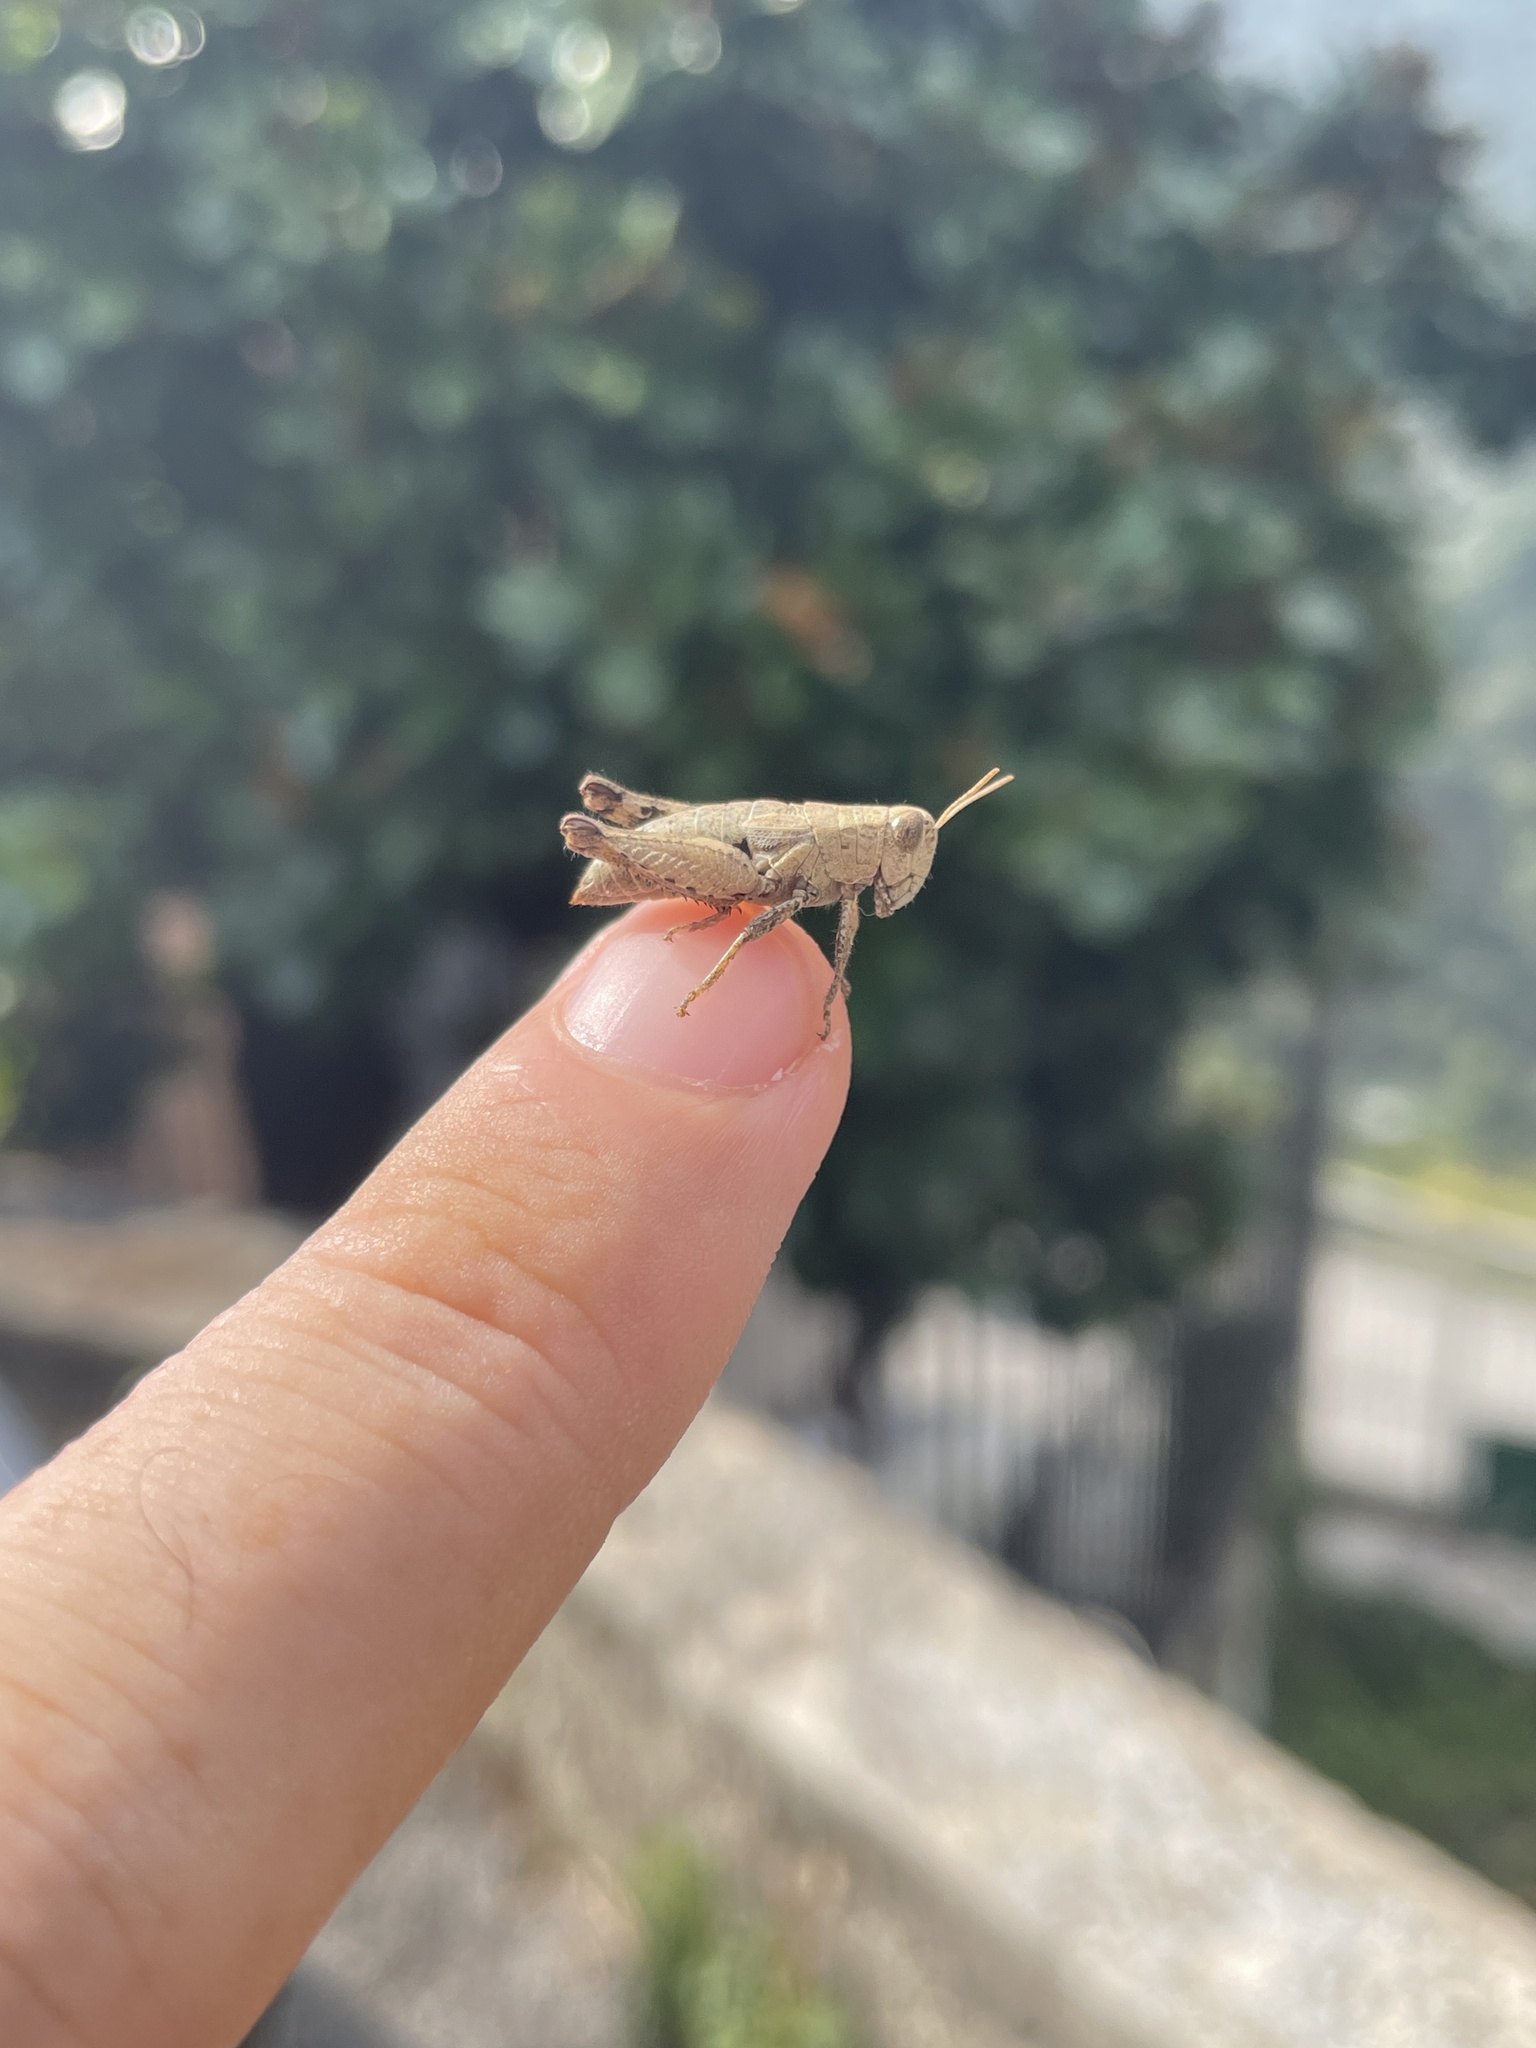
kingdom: Animalia
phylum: Arthropoda
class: Insecta
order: Orthoptera
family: Acrididae
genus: Pezotettix
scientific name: Pezotettix giornae
